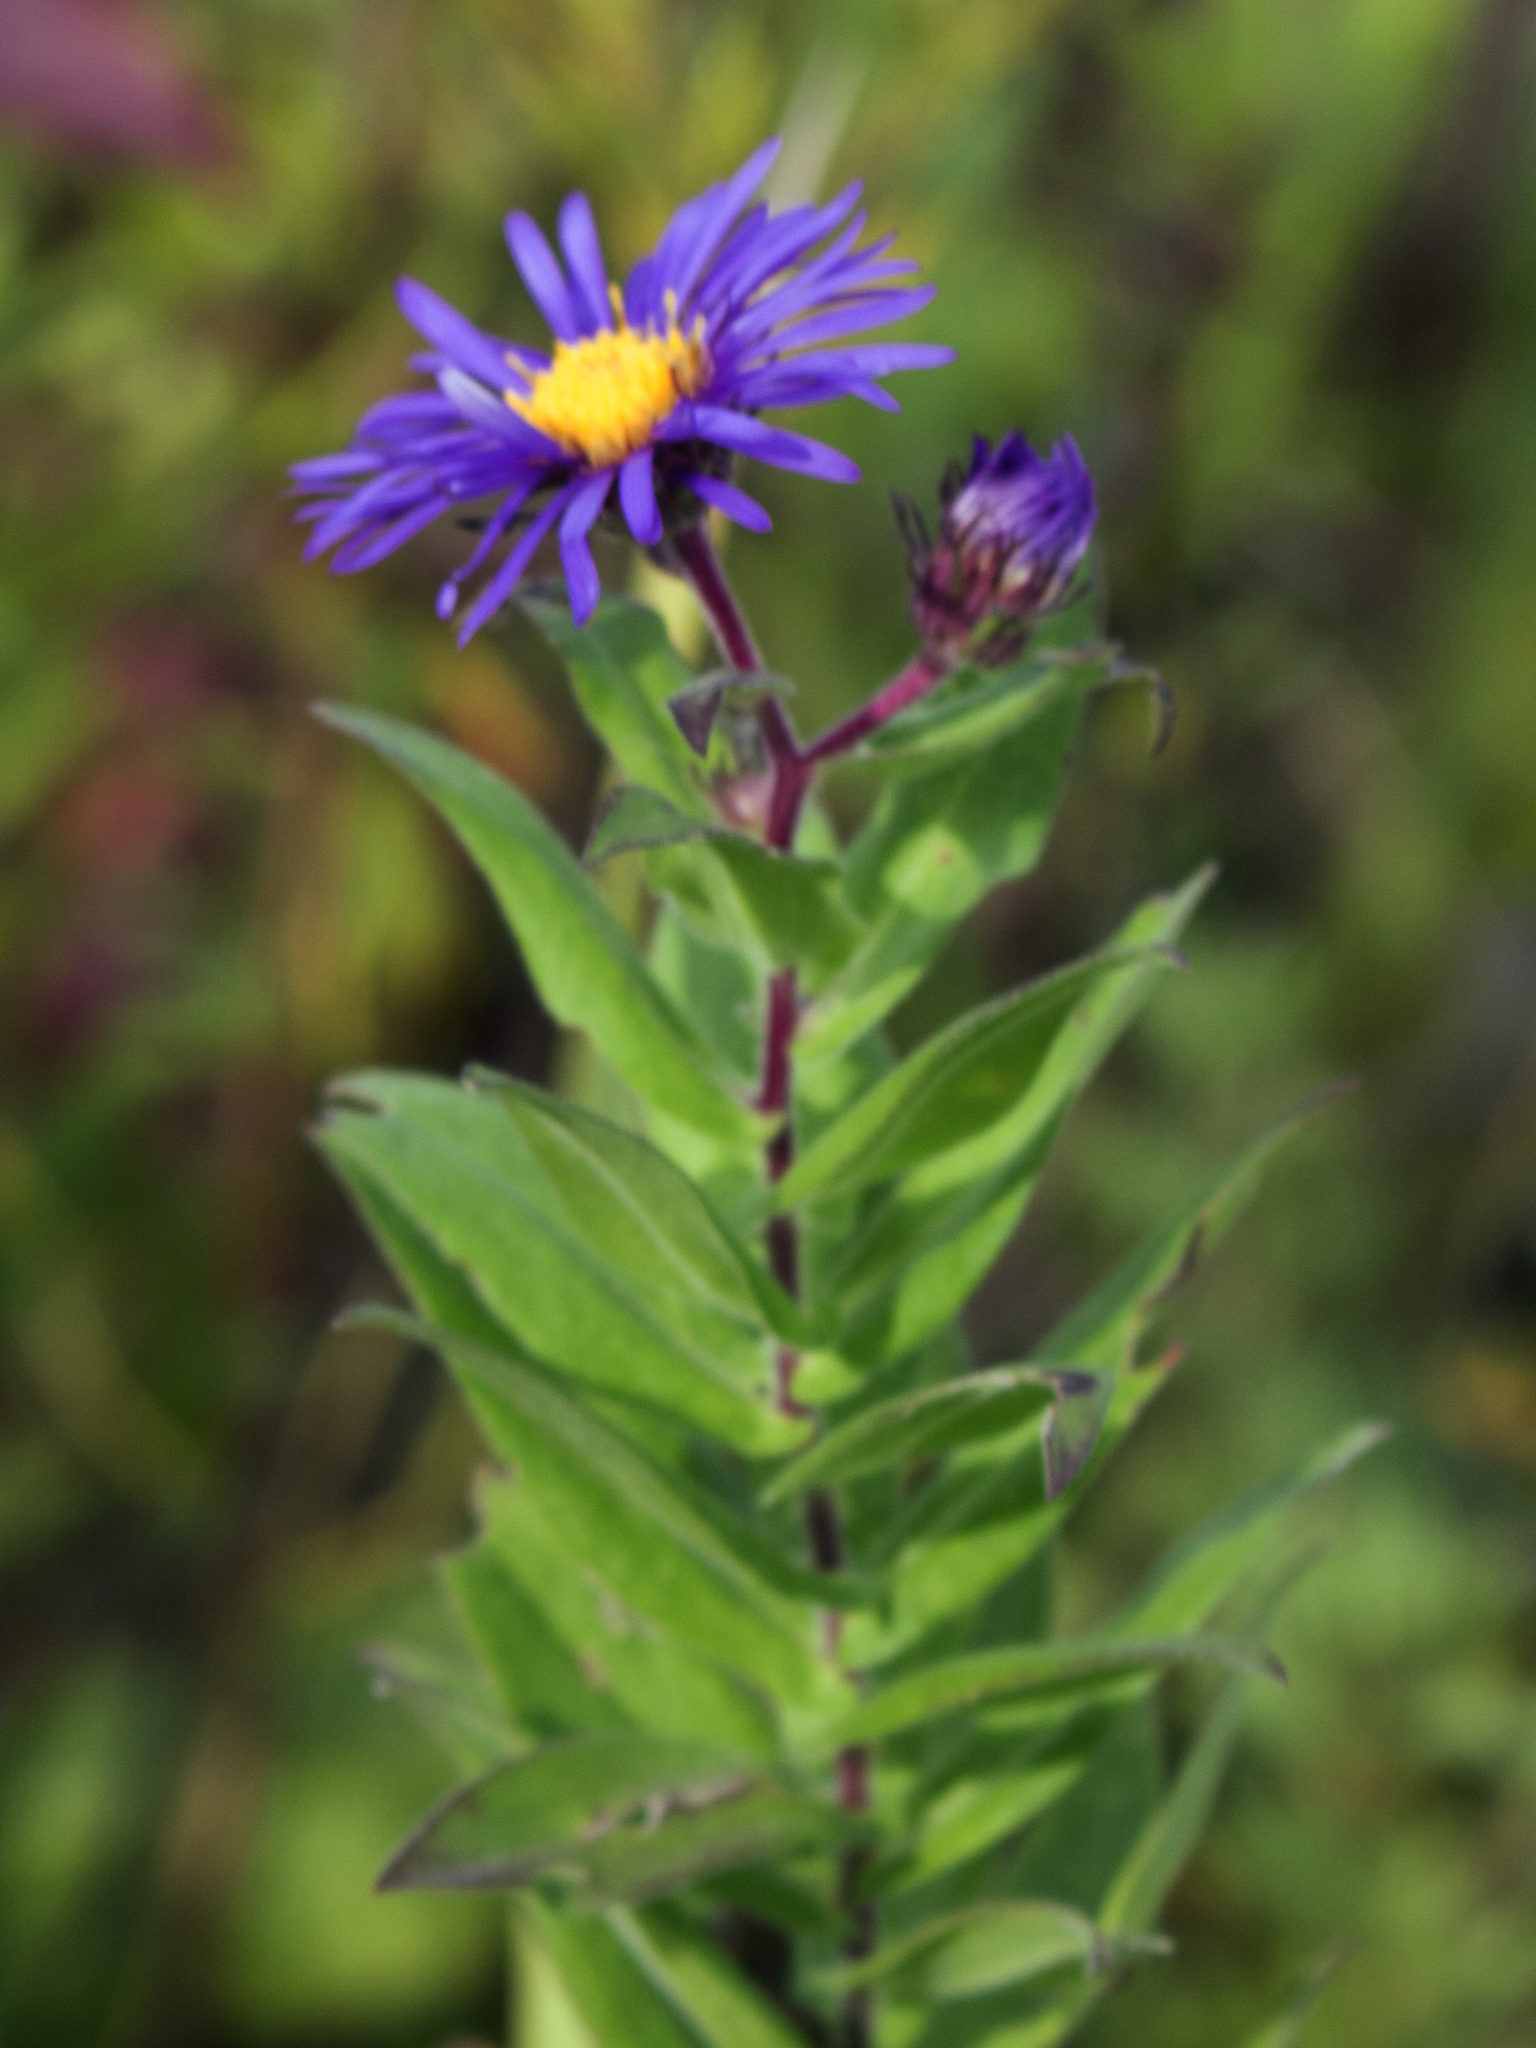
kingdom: Plantae
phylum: Tracheophyta
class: Magnoliopsida
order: Asterales
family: Asteraceae
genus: Symphyotrichum
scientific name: Symphyotrichum novae-angliae
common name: Michaelmas daisy
